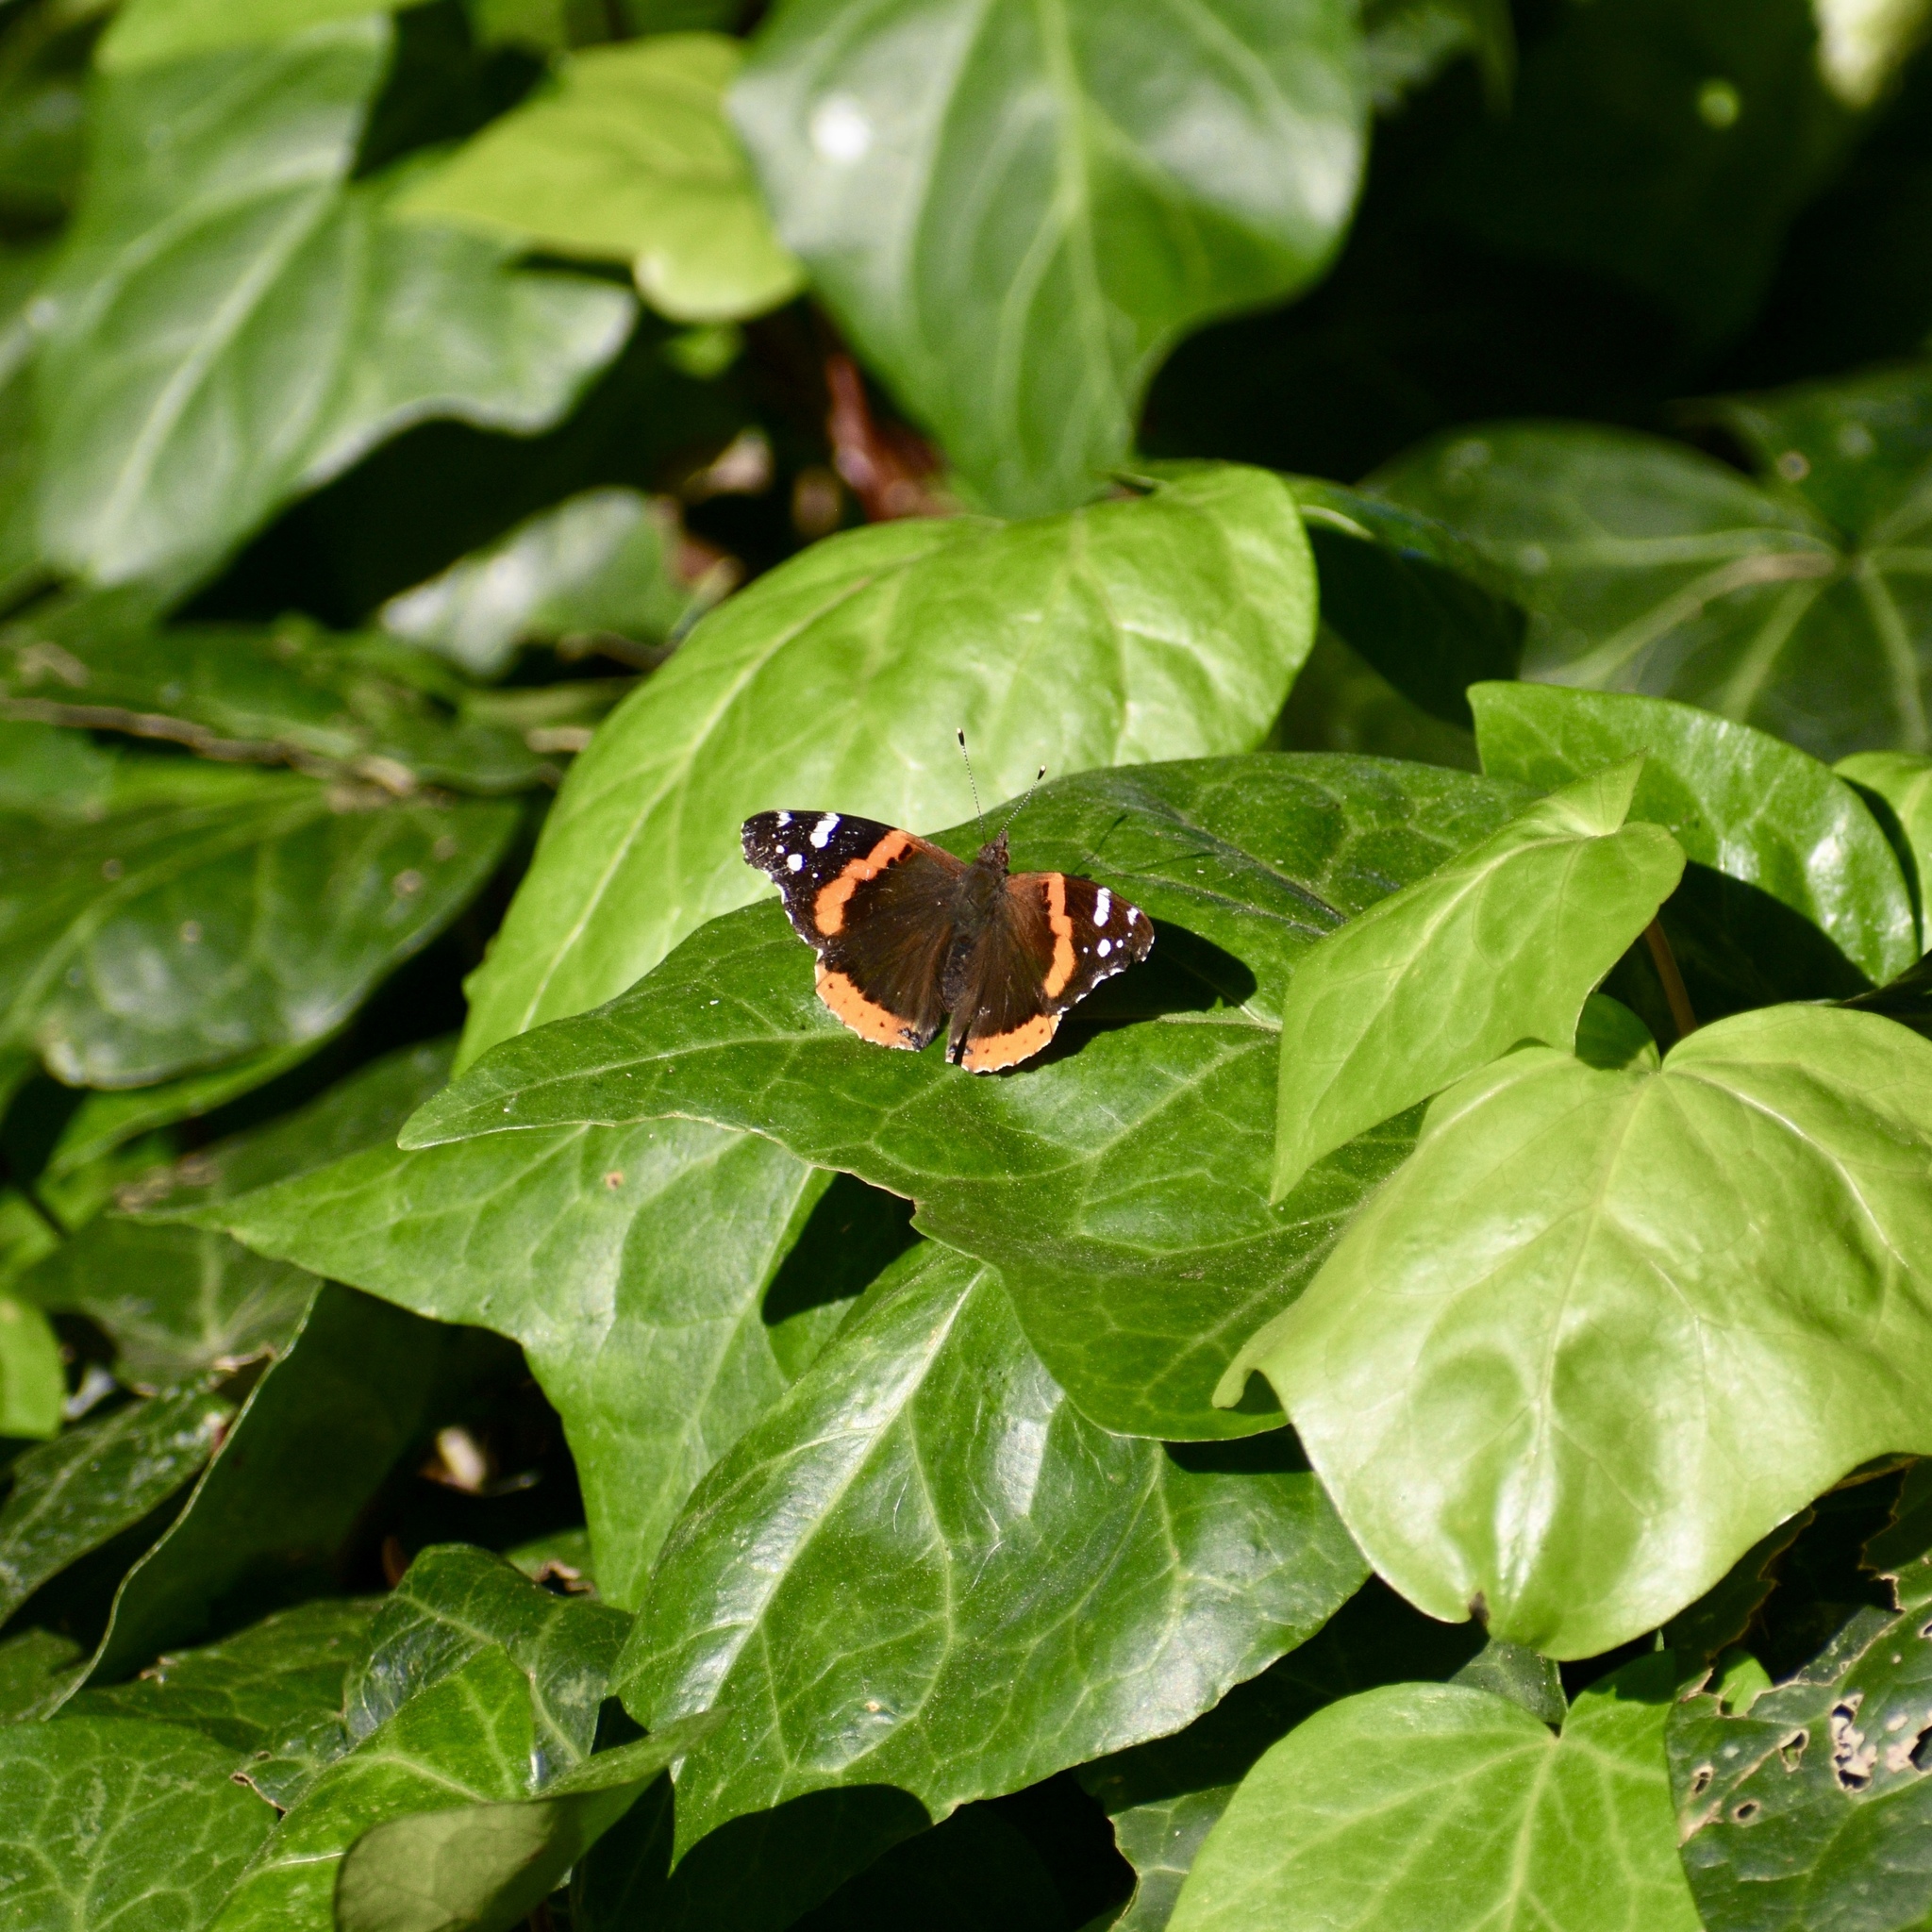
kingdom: Animalia
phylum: Arthropoda
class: Insecta
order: Lepidoptera
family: Nymphalidae
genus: Vanessa
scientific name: Vanessa atalanta
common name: Red admiral
